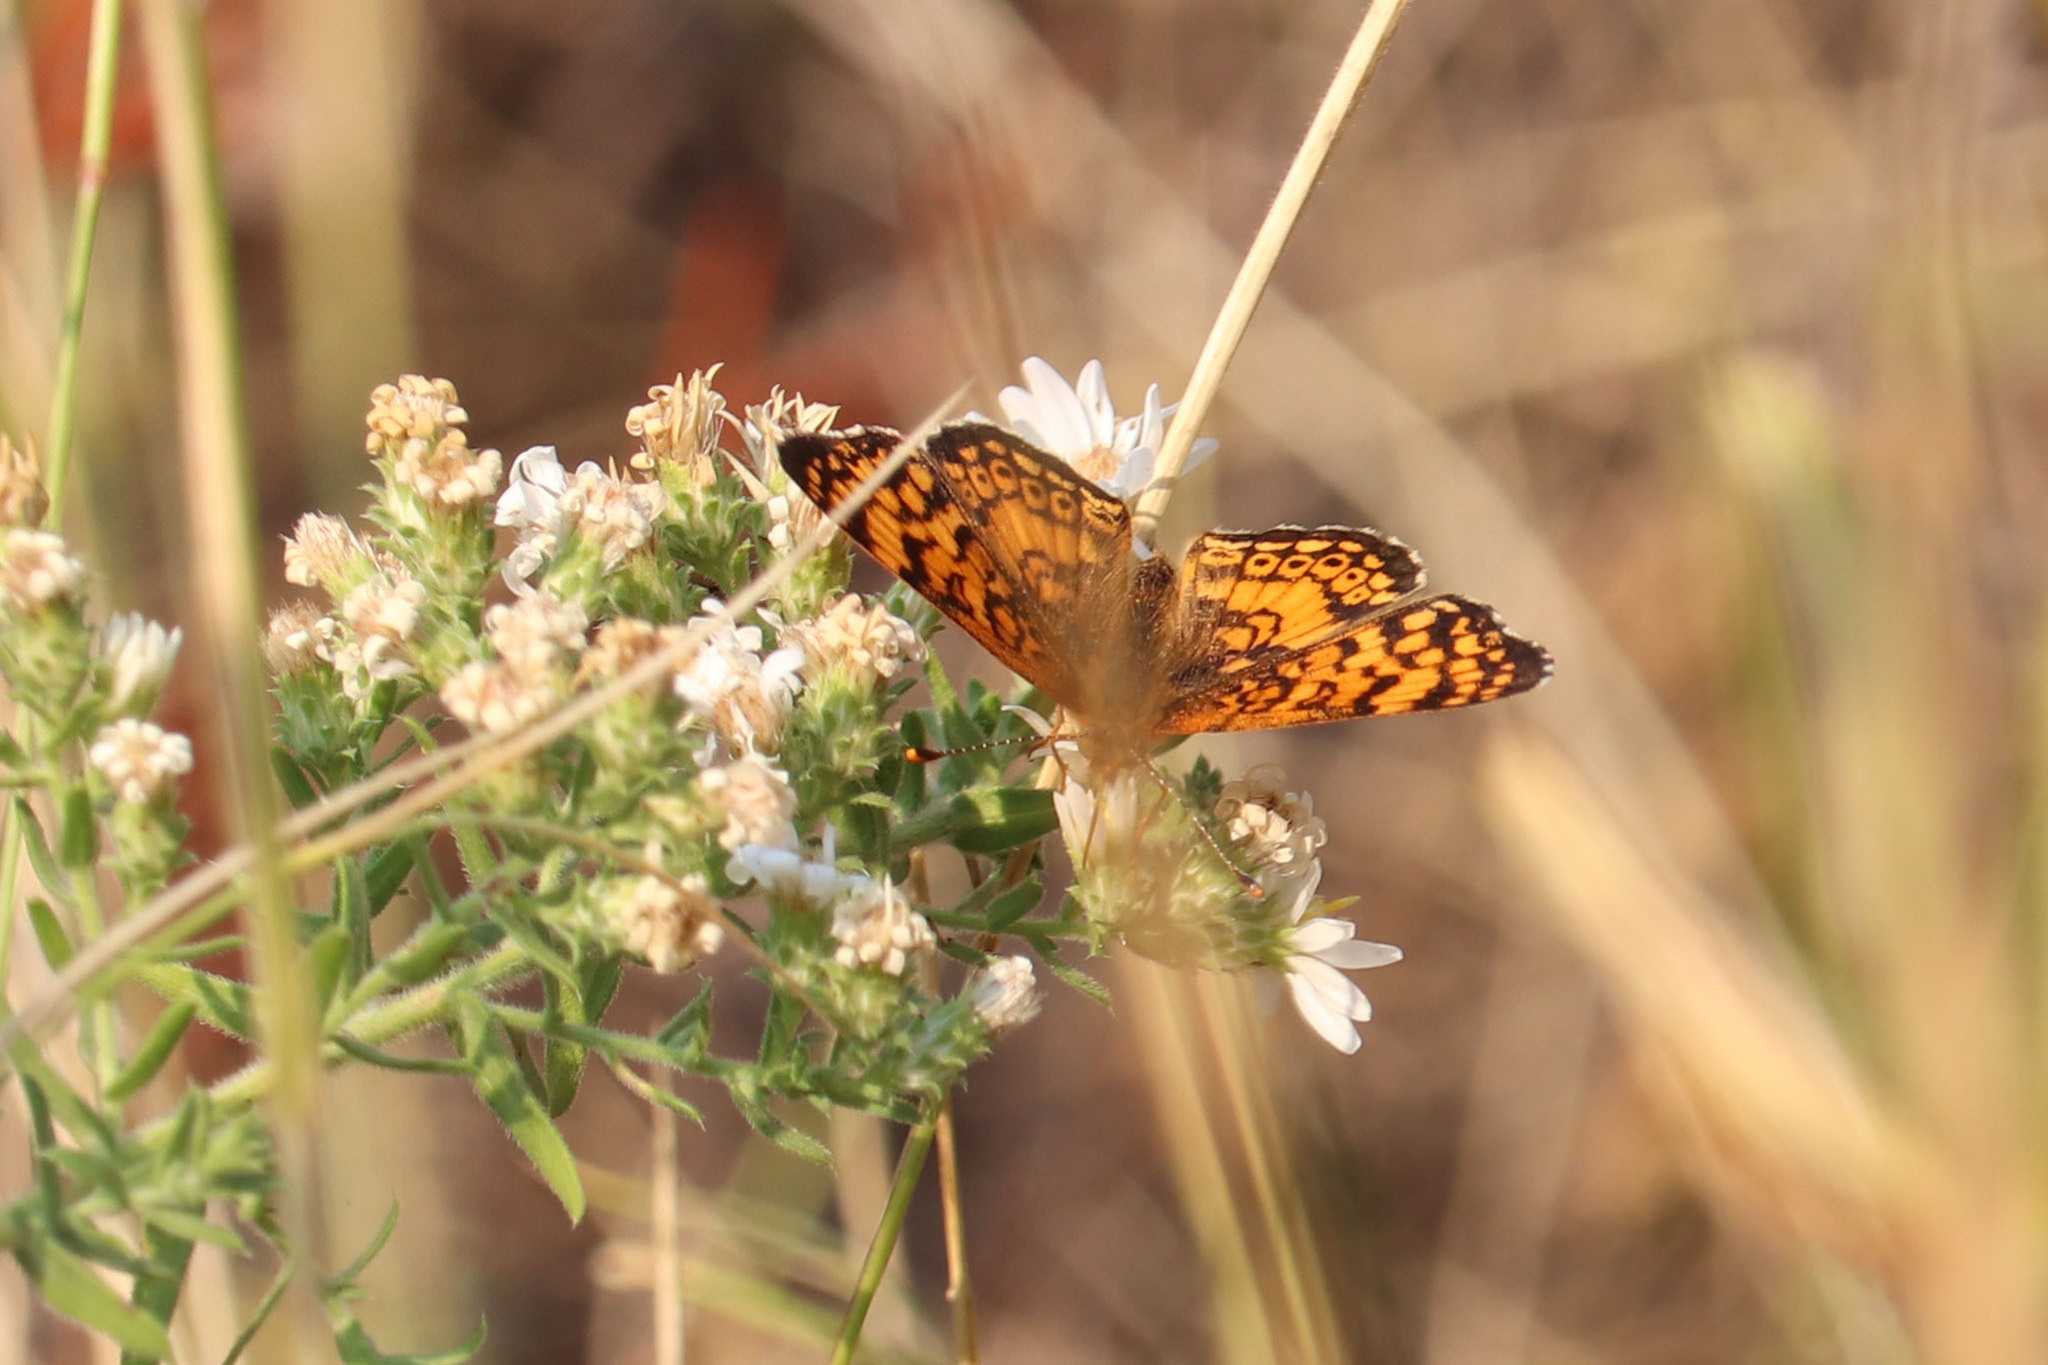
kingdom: Animalia
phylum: Arthropoda
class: Insecta
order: Lepidoptera
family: Nymphalidae
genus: Eresia
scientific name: Eresia aveyrona
